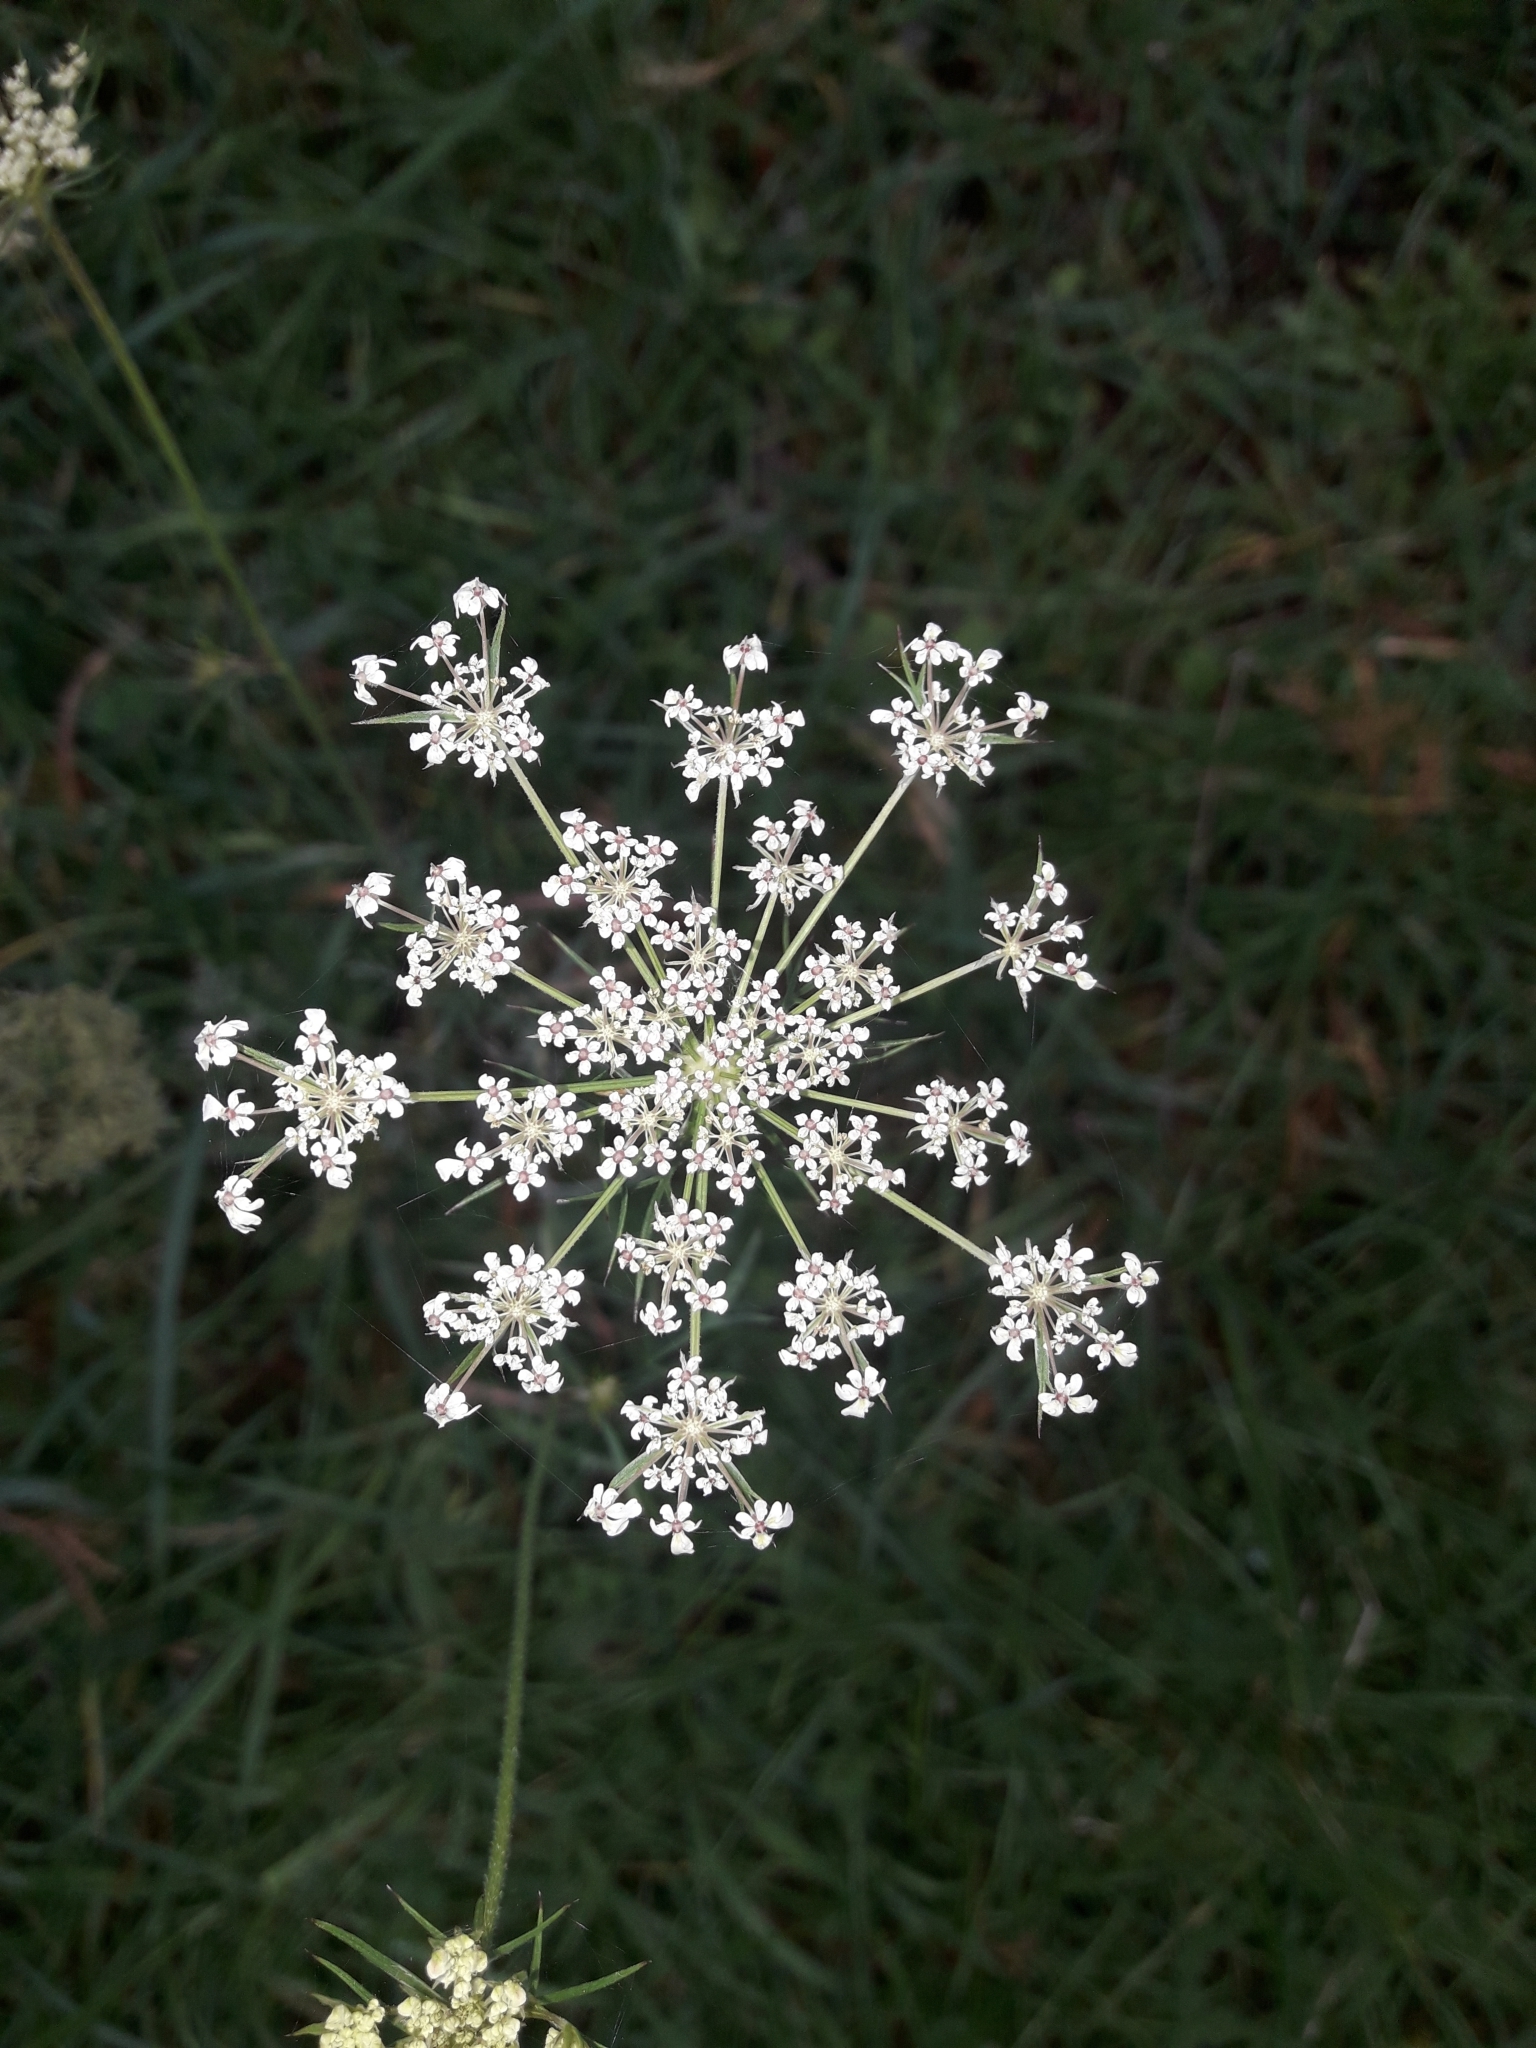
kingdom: Plantae
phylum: Tracheophyta
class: Magnoliopsida
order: Apiales
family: Apiaceae
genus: Daucus
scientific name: Daucus carota
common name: Wild carrot
